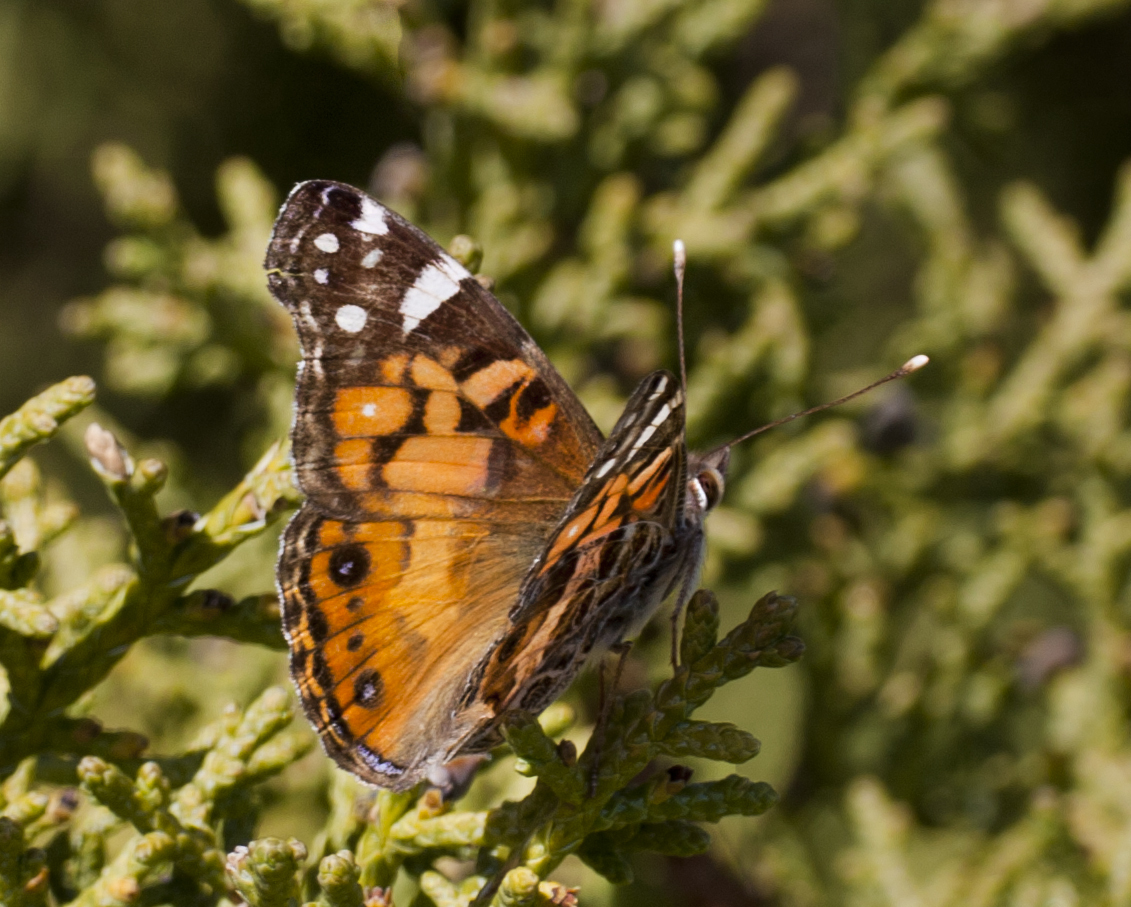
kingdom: Animalia
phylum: Arthropoda
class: Insecta
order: Lepidoptera
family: Nymphalidae
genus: Vanessa
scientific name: Vanessa virginiensis
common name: American lady
